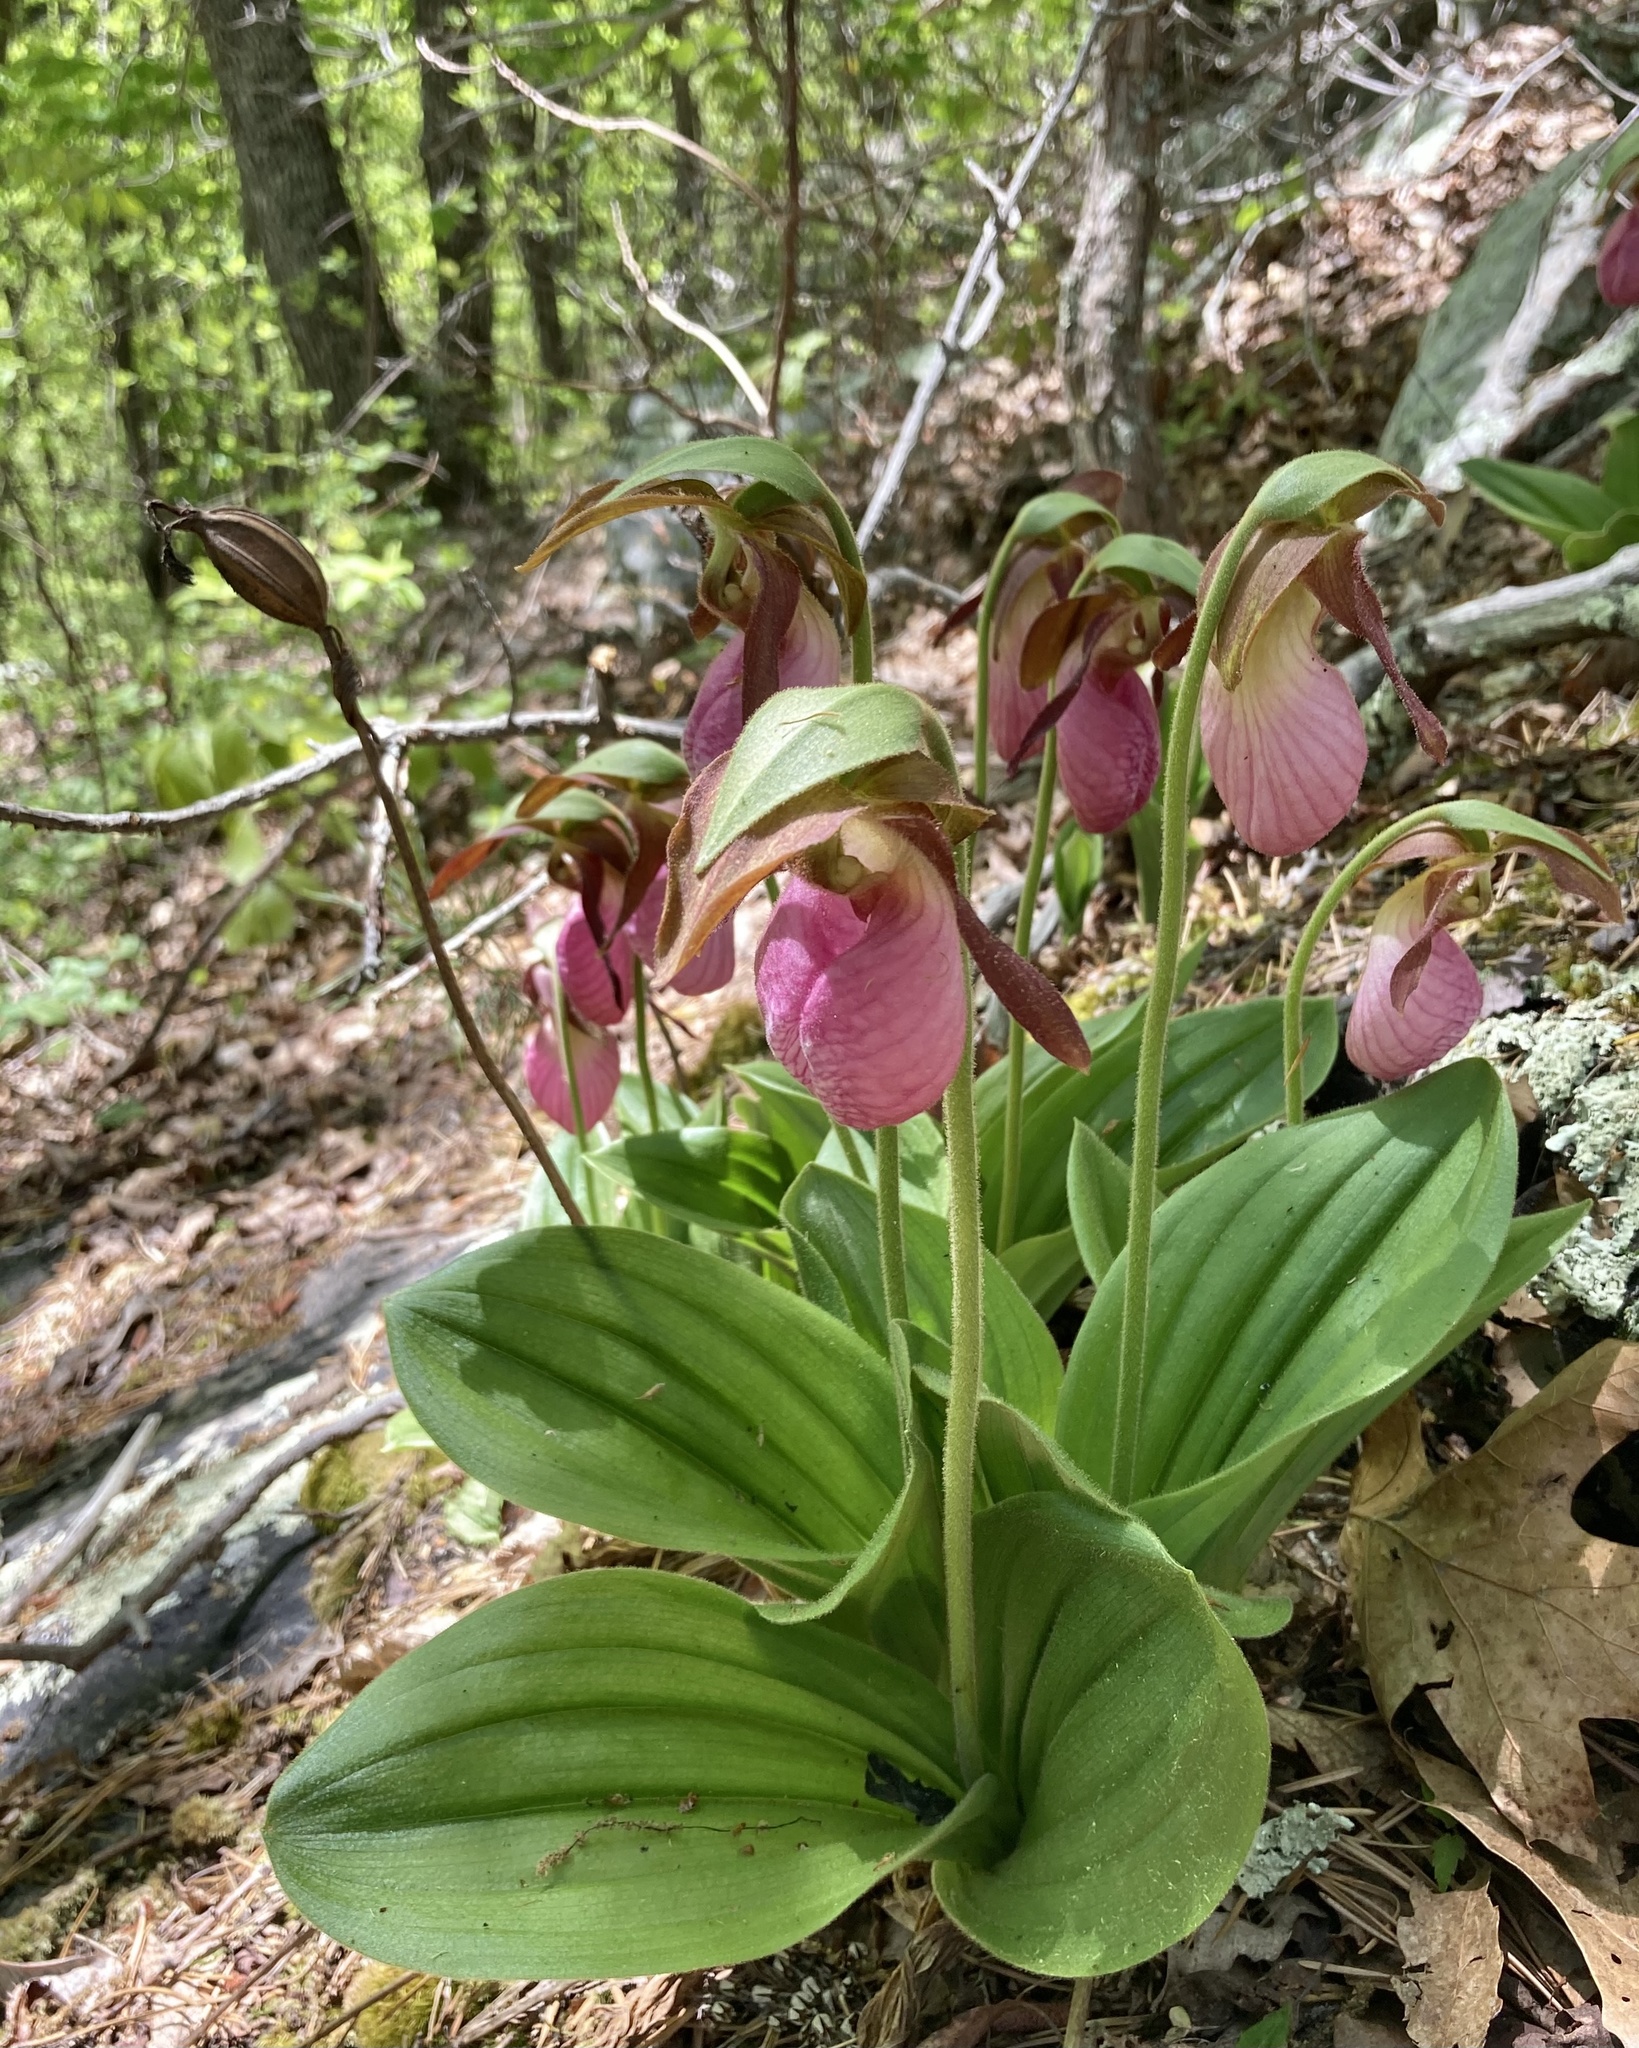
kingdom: Plantae
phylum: Tracheophyta
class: Liliopsida
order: Asparagales
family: Orchidaceae
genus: Cypripedium
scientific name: Cypripedium acaule
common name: Pink lady's-slipper
